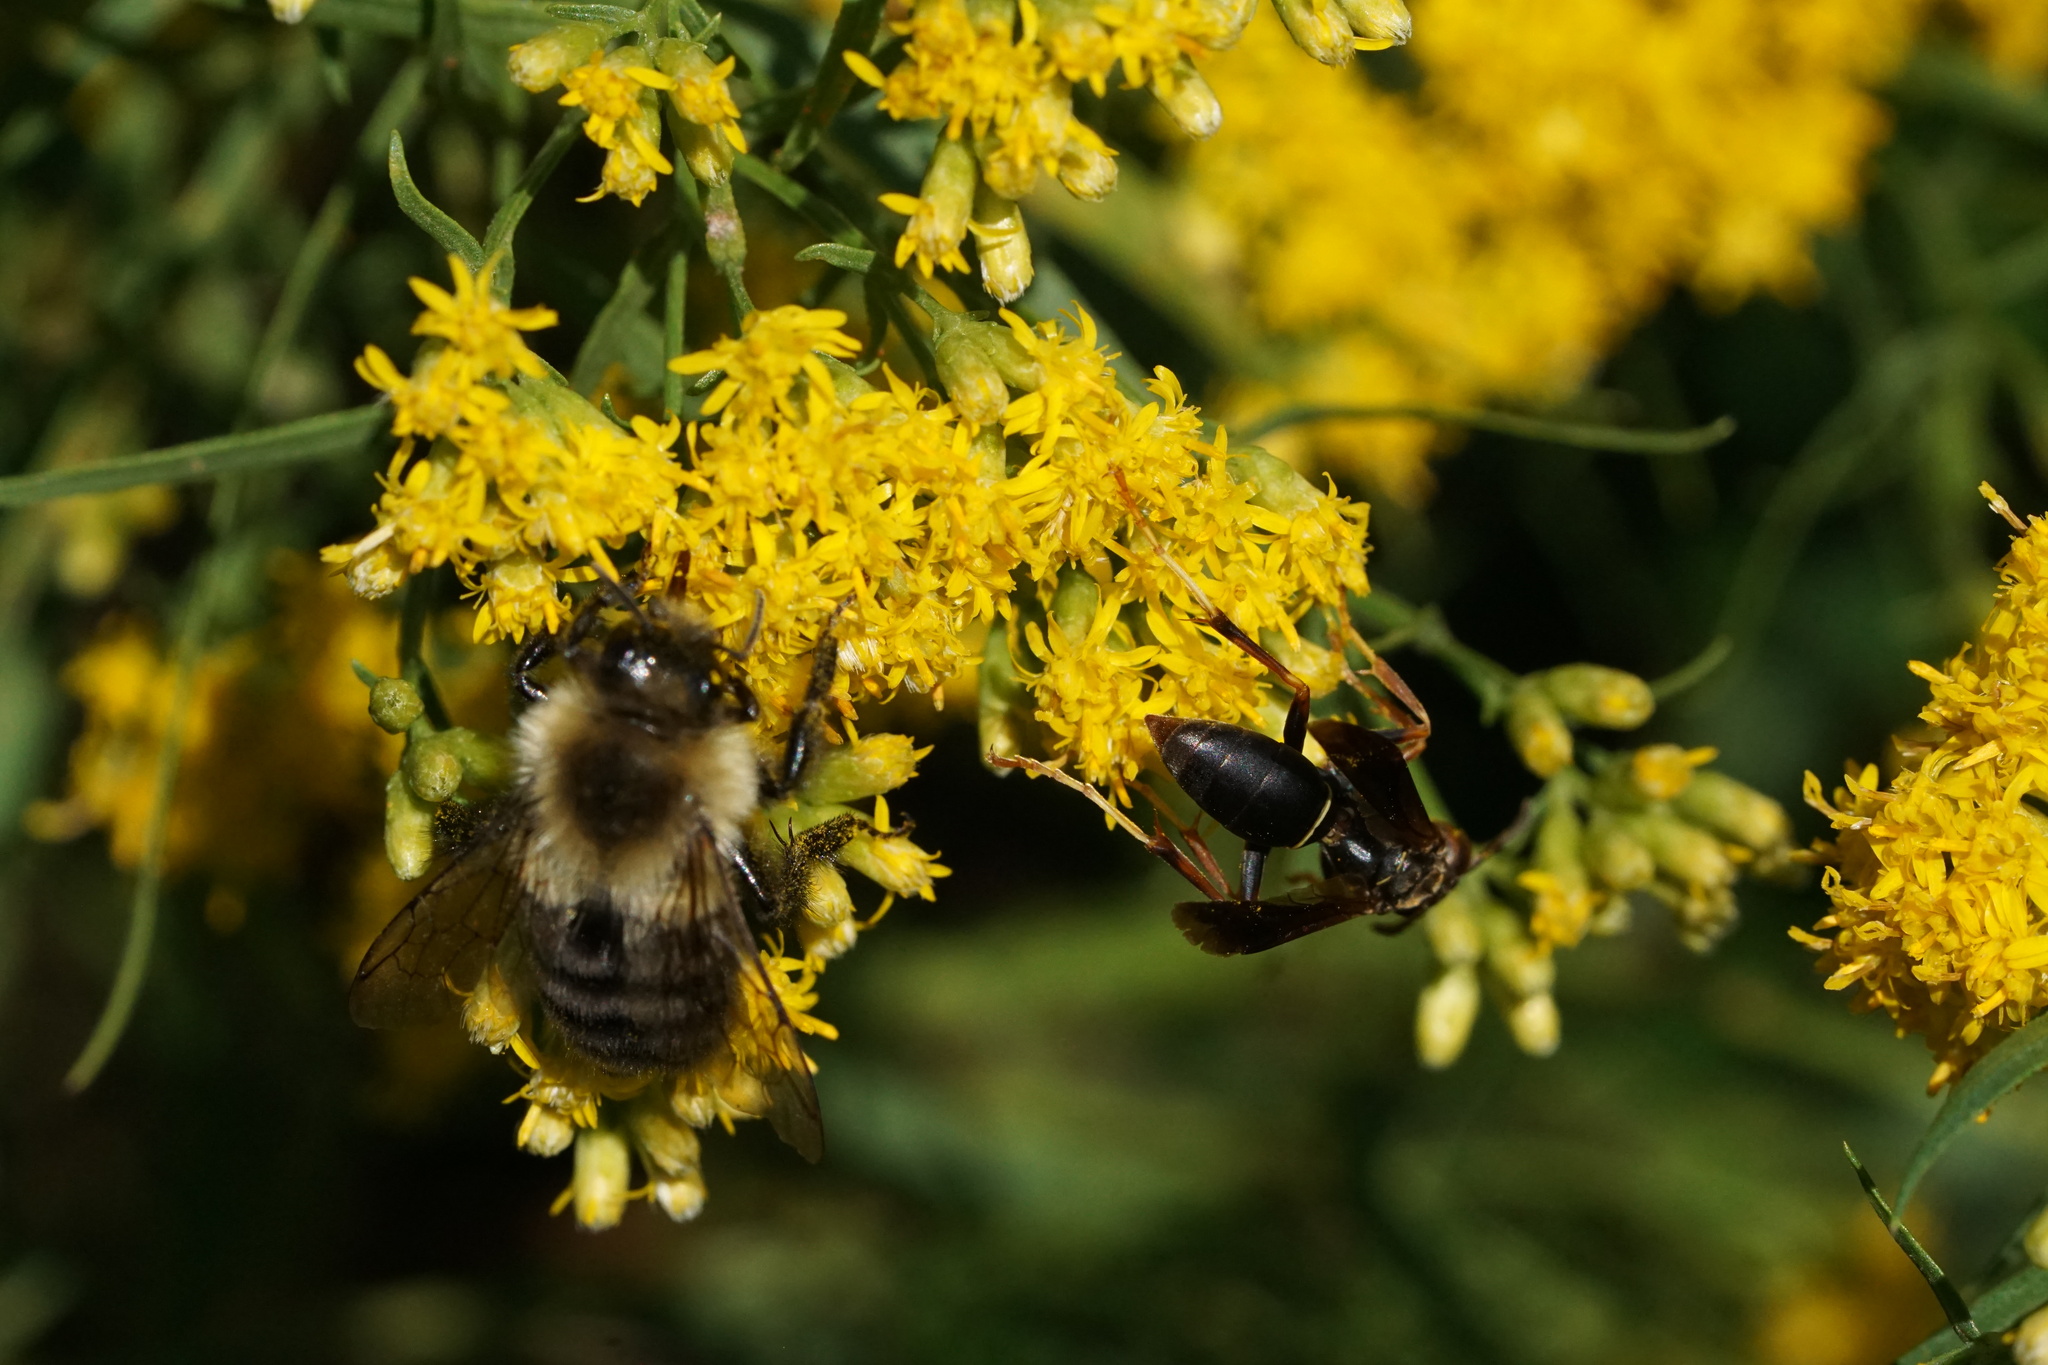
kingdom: Animalia
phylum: Arthropoda
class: Insecta
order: Hymenoptera
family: Apidae
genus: Bombus
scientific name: Bombus impatiens
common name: Common eastern bumble bee
